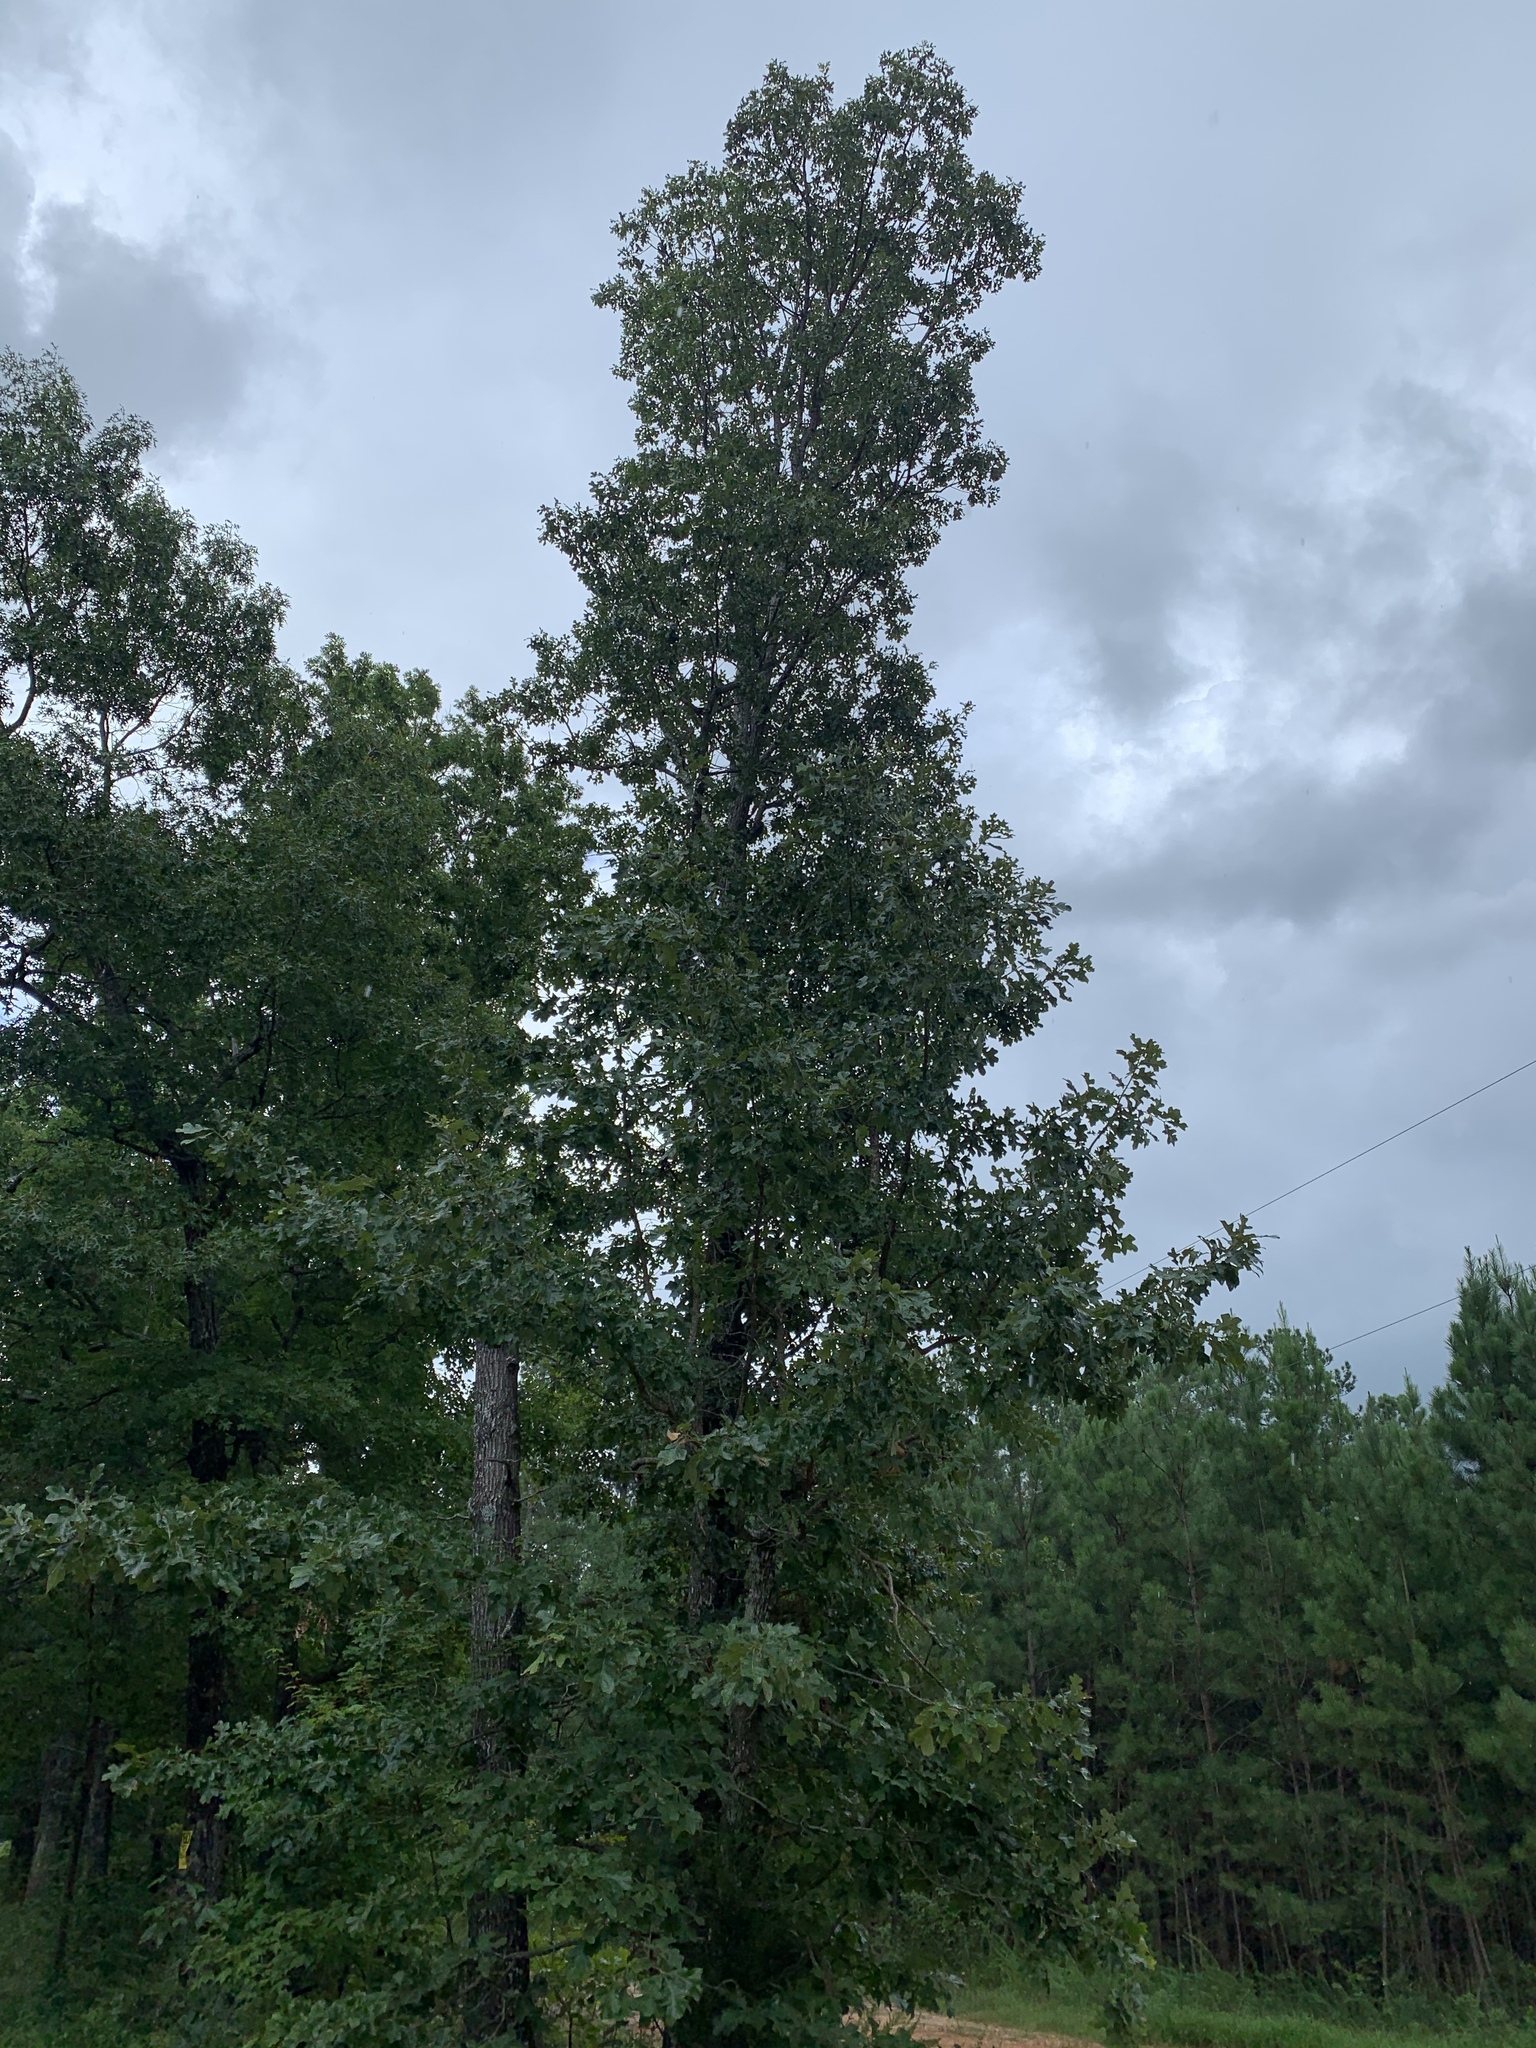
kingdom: Plantae
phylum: Tracheophyta
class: Magnoliopsida
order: Fagales
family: Fagaceae
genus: Quercus
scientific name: Quercus stellata
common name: Post oak
